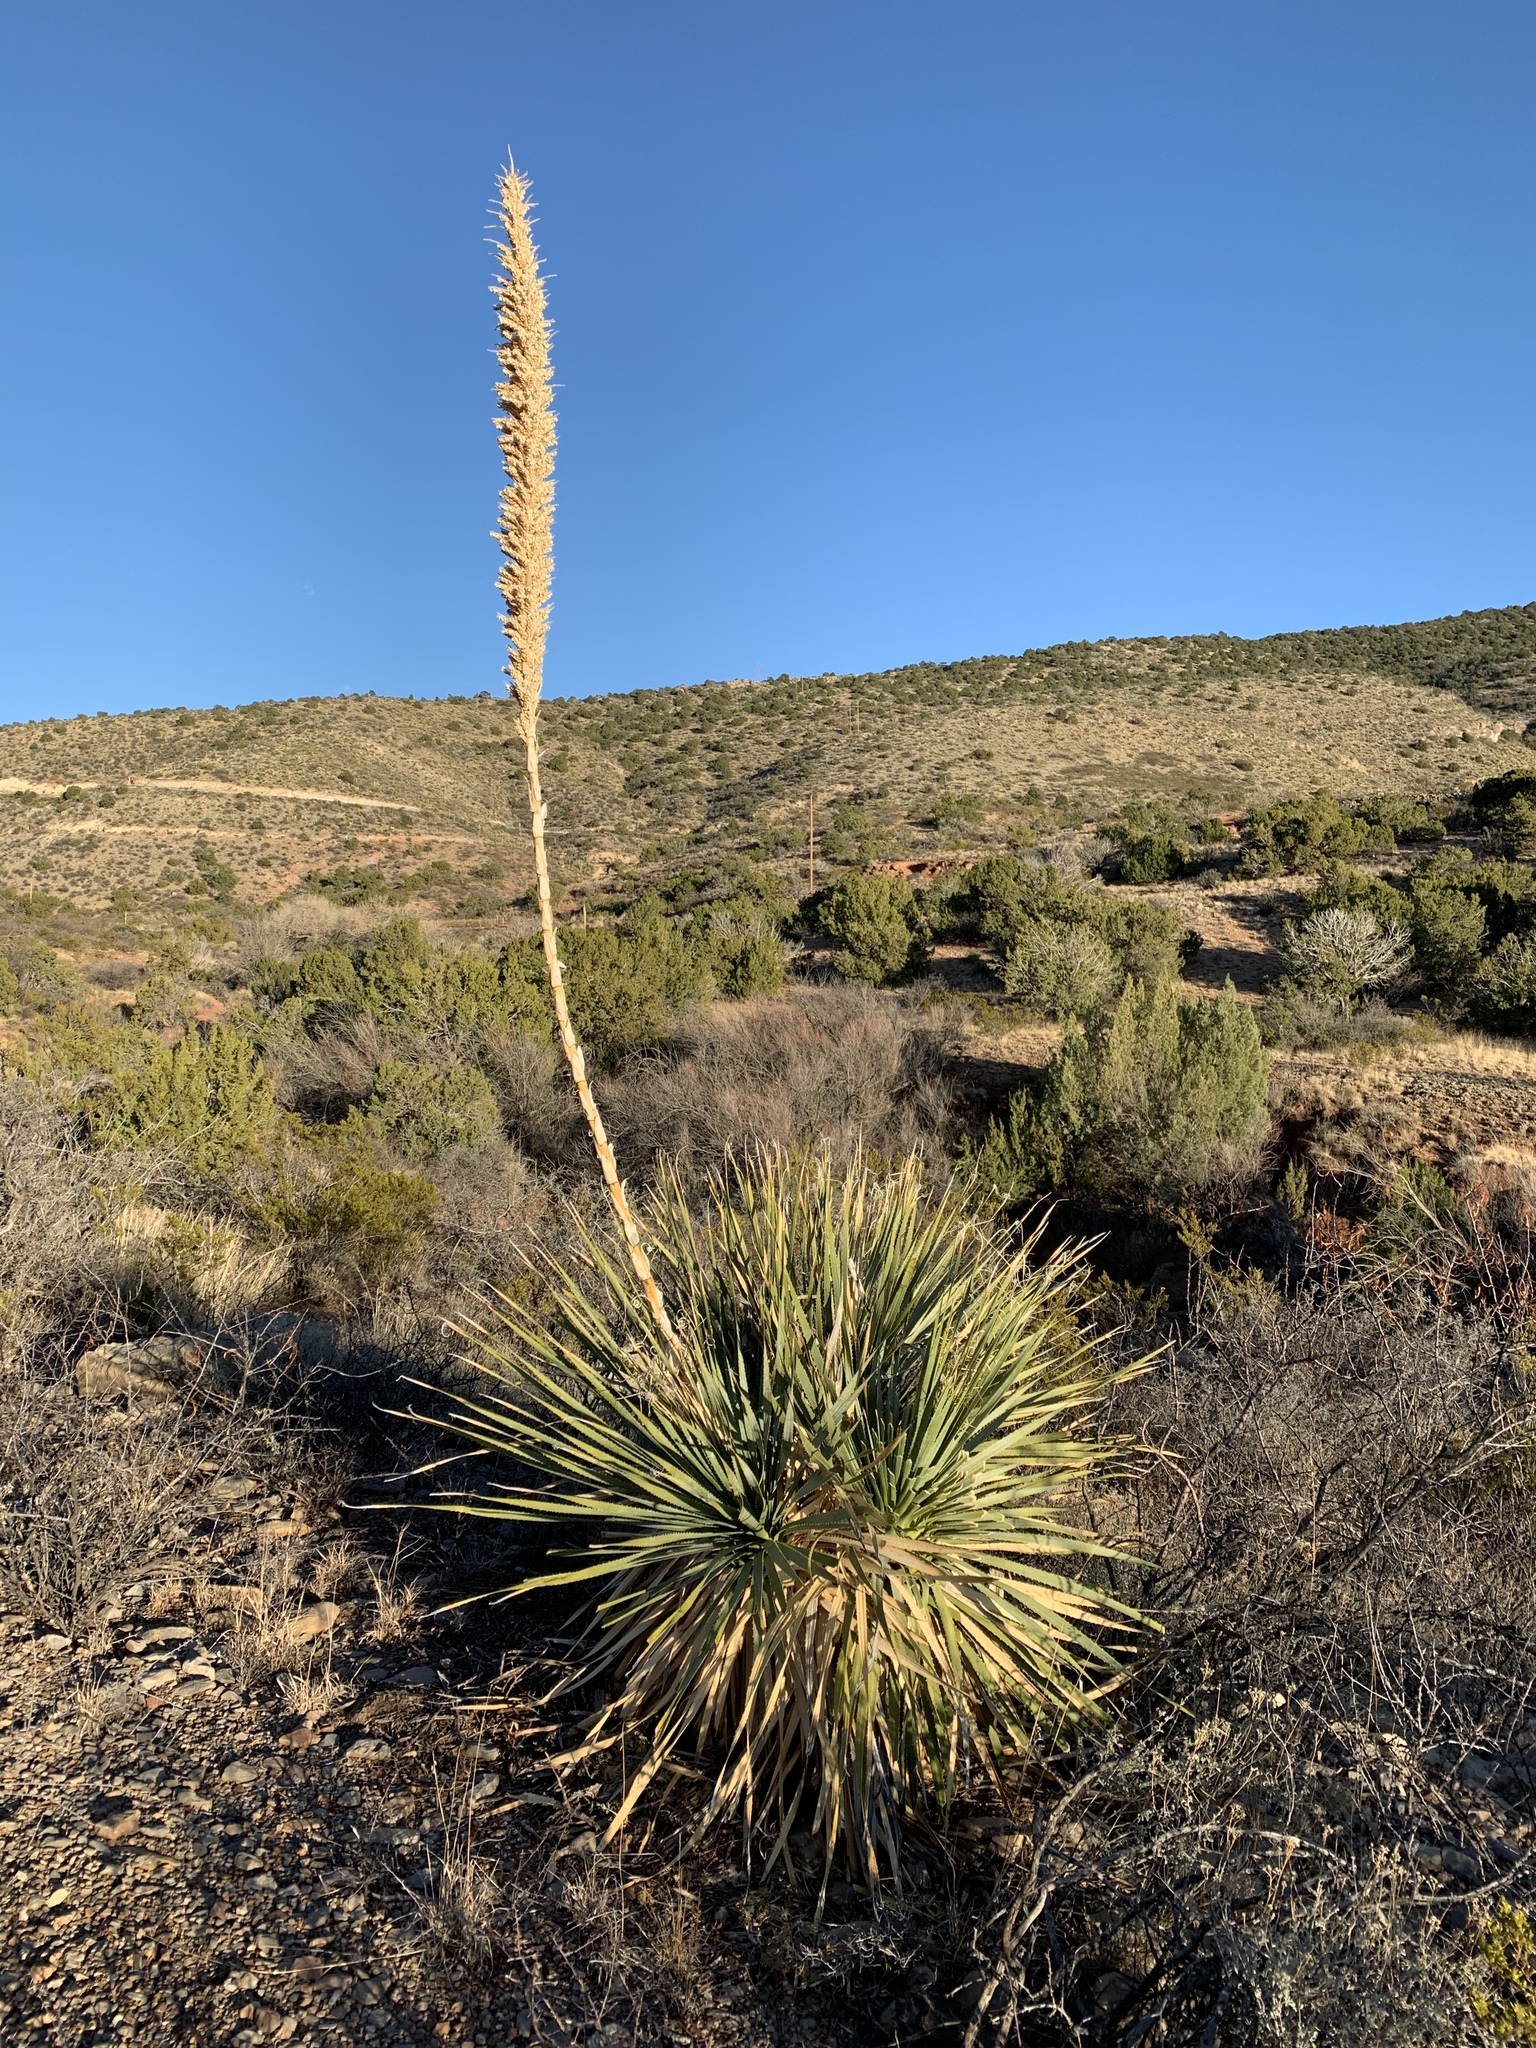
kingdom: Plantae
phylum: Tracheophyta
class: Liliopsida
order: Asparagales
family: Asparagaceae
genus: Dasylirion
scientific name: Dasylirion wheeleri
